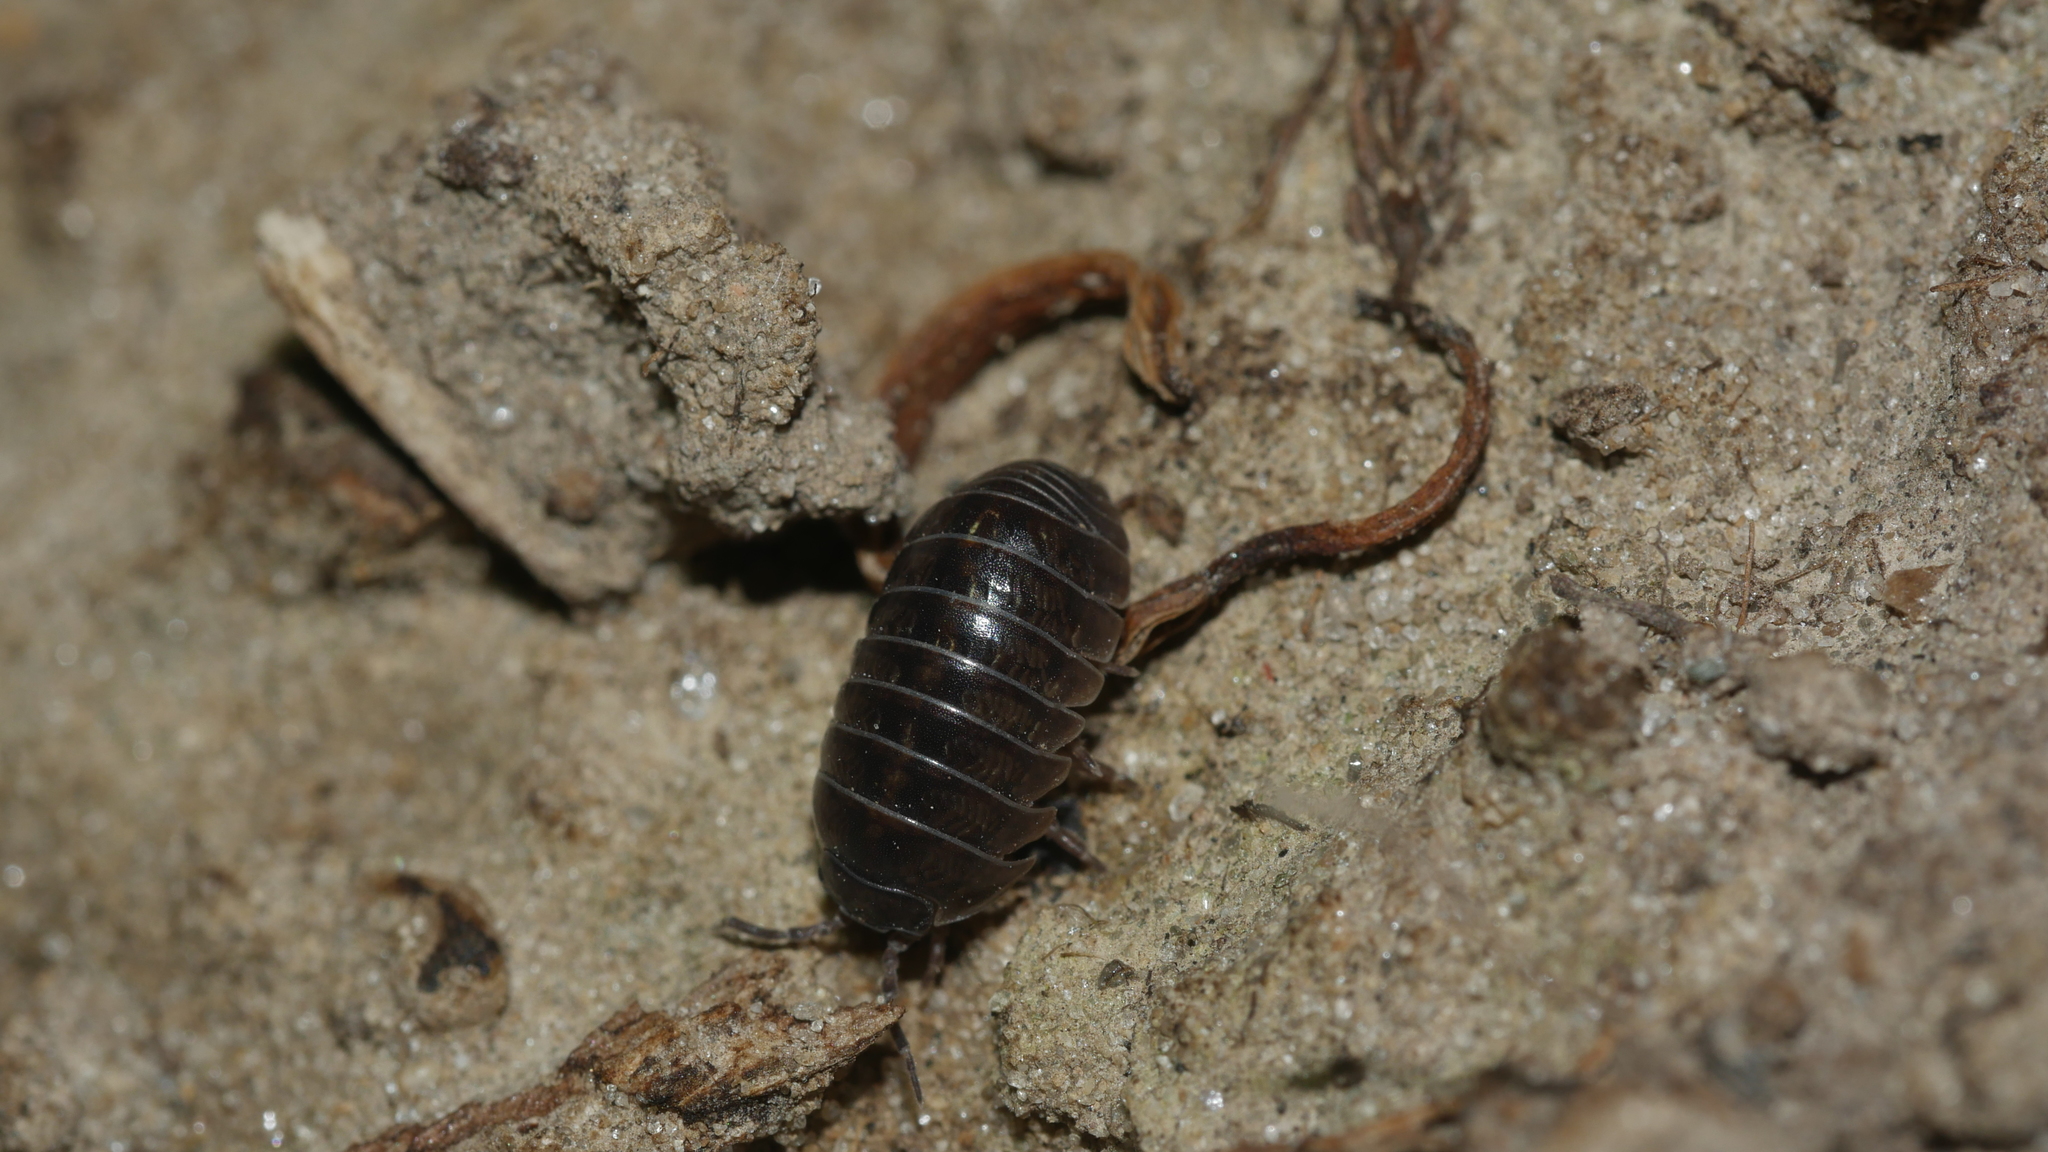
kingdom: Animalia
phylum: Arthropoda
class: Malacostraca
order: Isopoda
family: Armadillidiidae
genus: Armadillidium
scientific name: Armadillidium vulgare
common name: Common pill woodlouse
